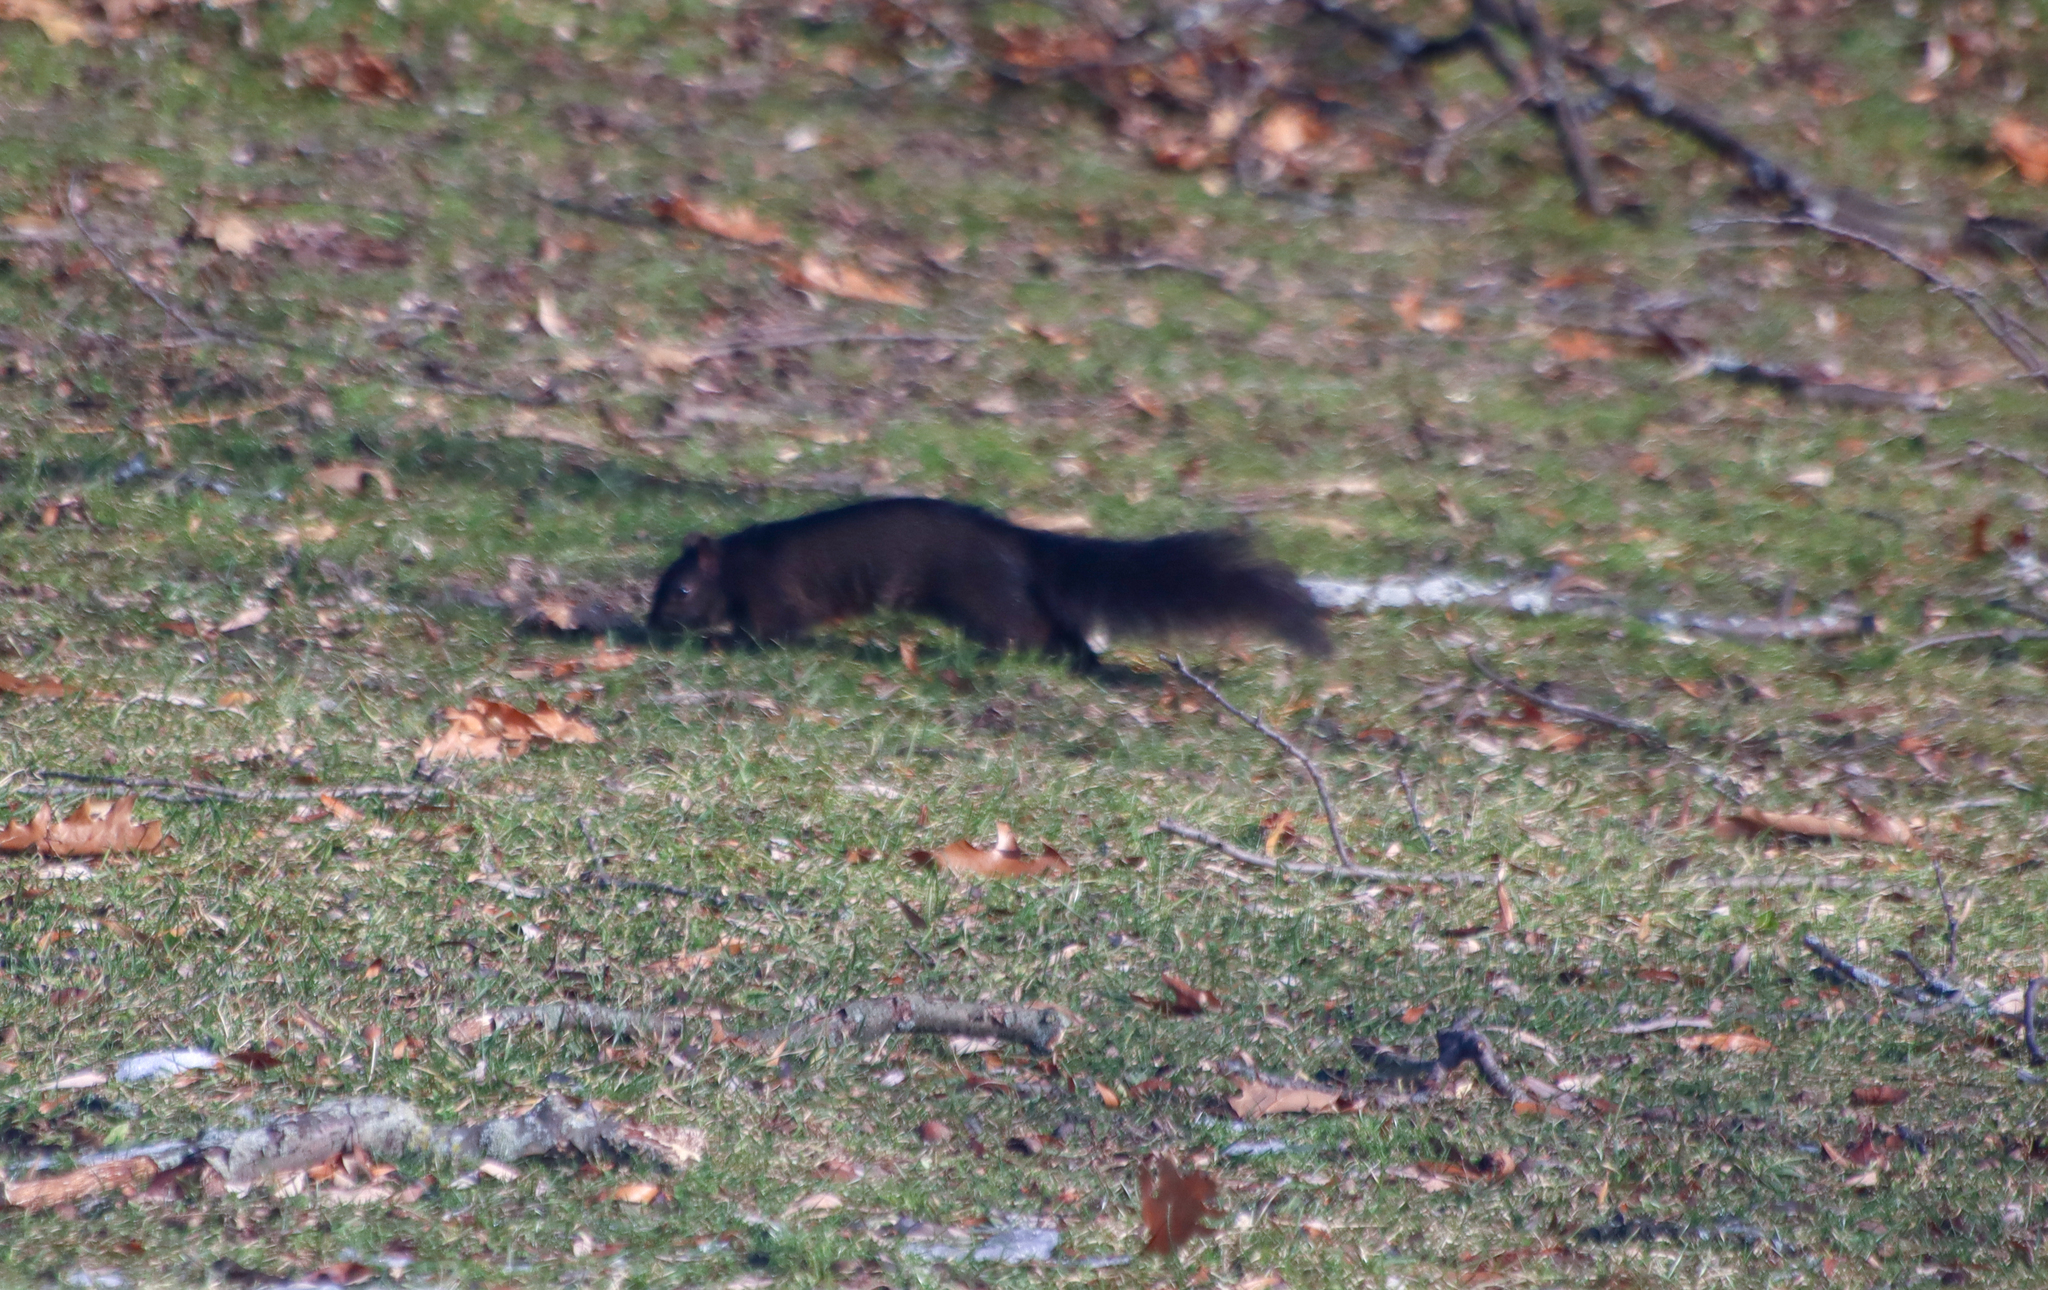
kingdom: Animalia
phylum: Chordata
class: Mammalia
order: Rodentia
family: Sciuridae
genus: Sciurus
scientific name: Sciurus carolinensis
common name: Eastern gray squirrel
